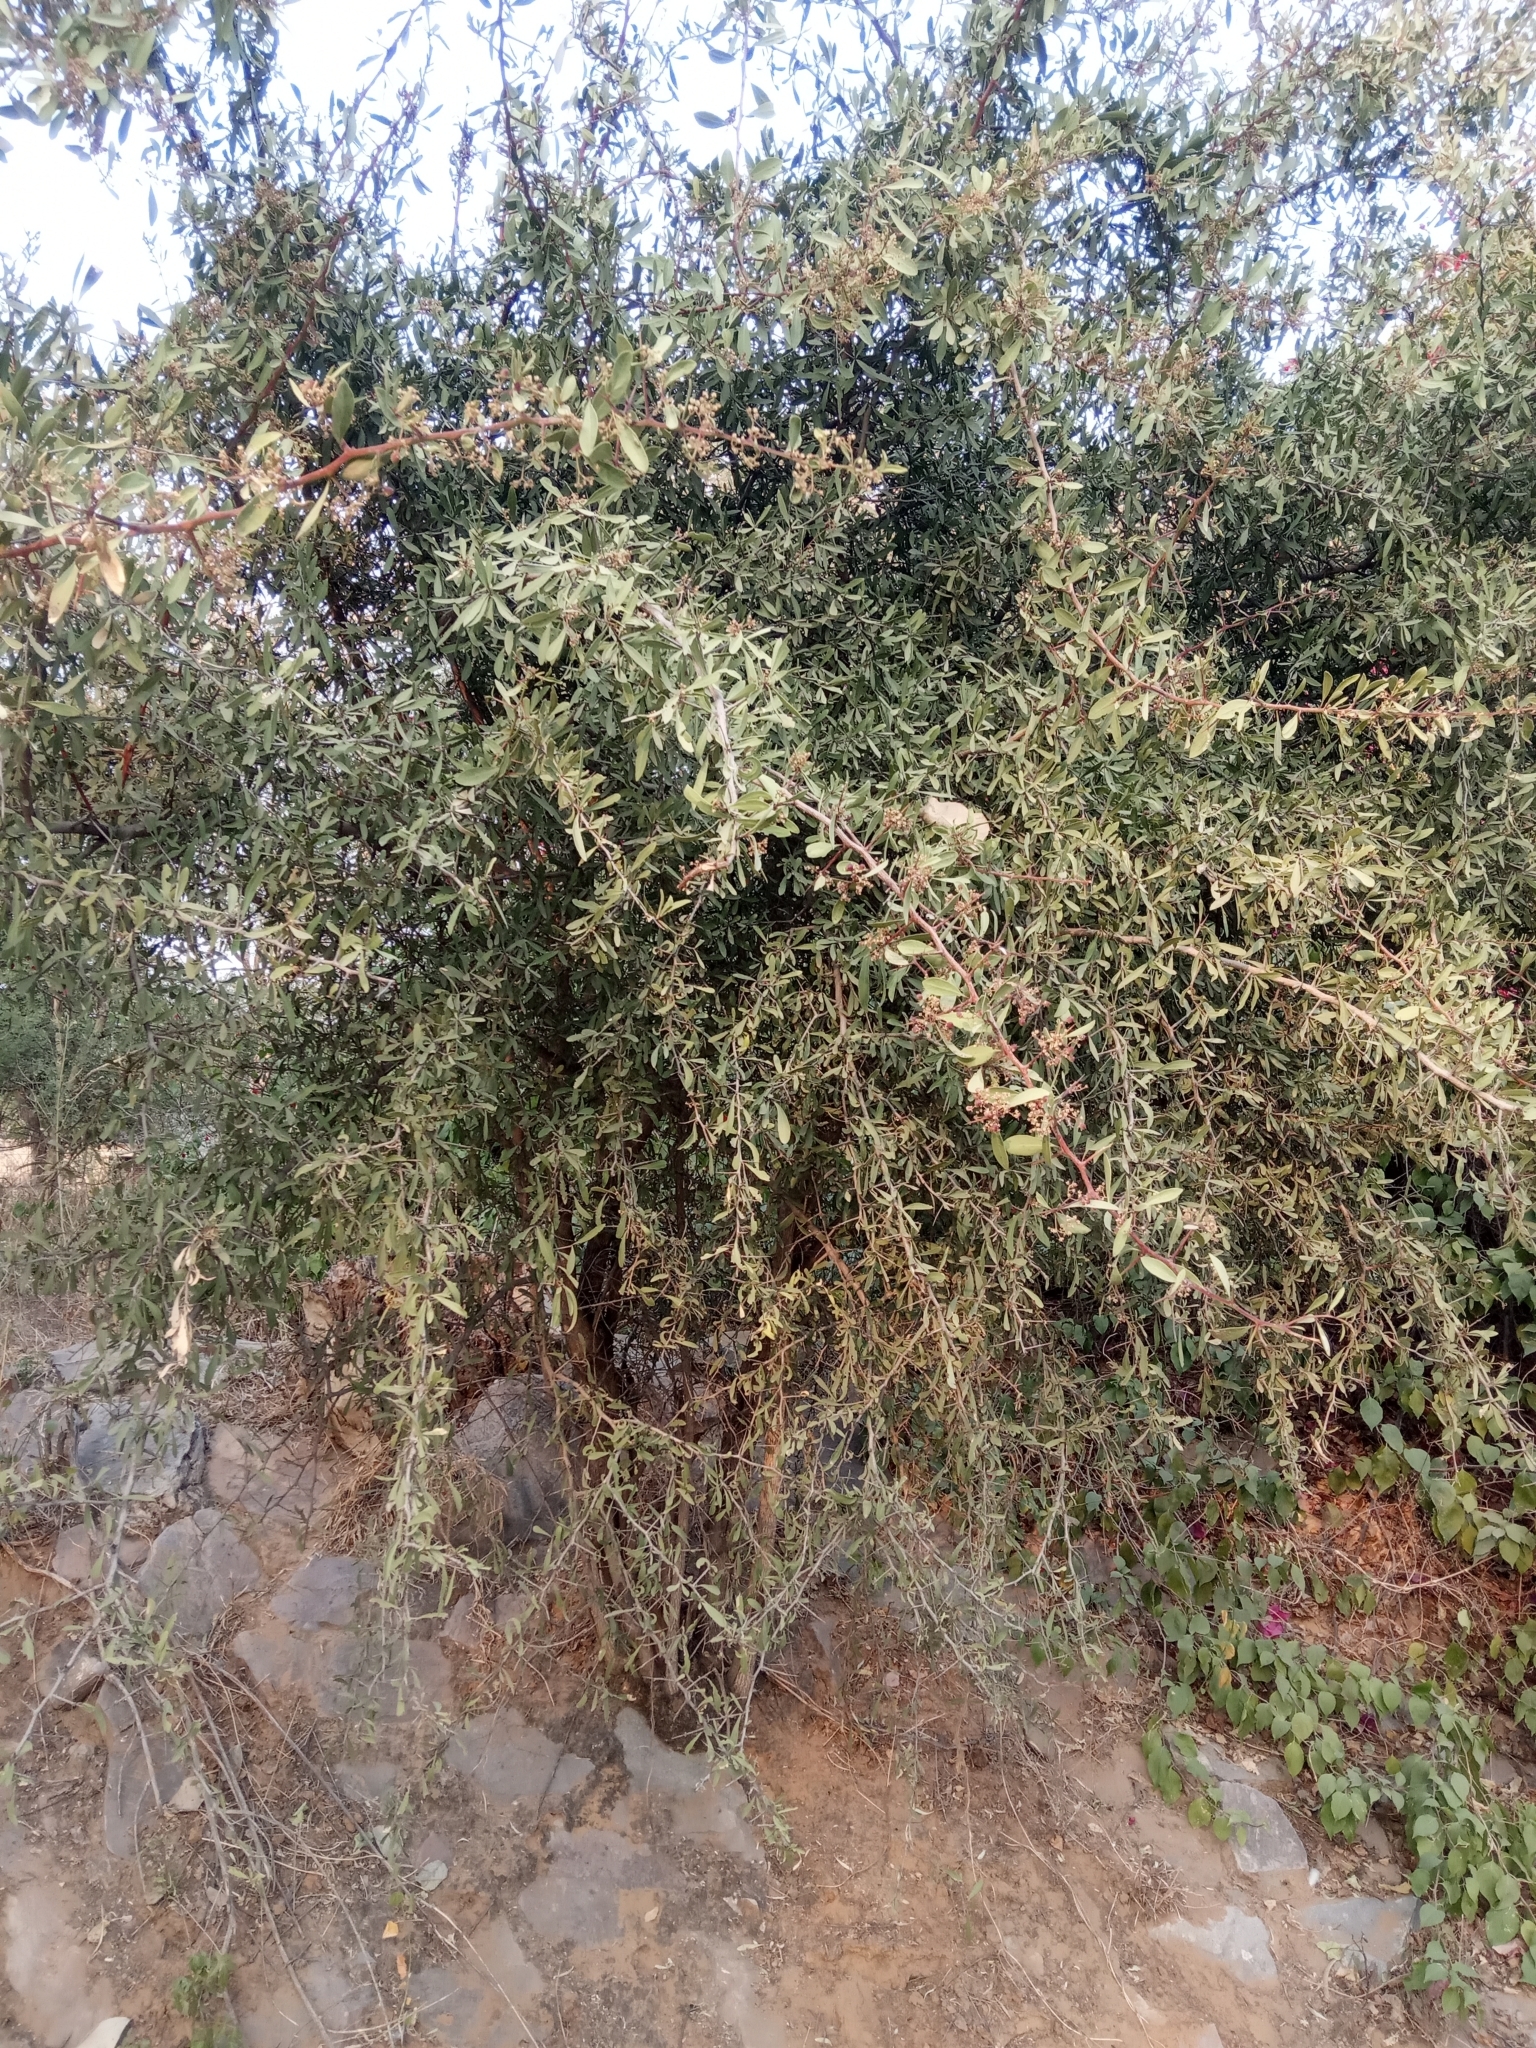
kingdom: Plantae
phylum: Tracheophyta
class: Magnoliopsida
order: Celastrales
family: Celastraceae
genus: Gymnosporia
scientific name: Gymnosporia senegalensis
